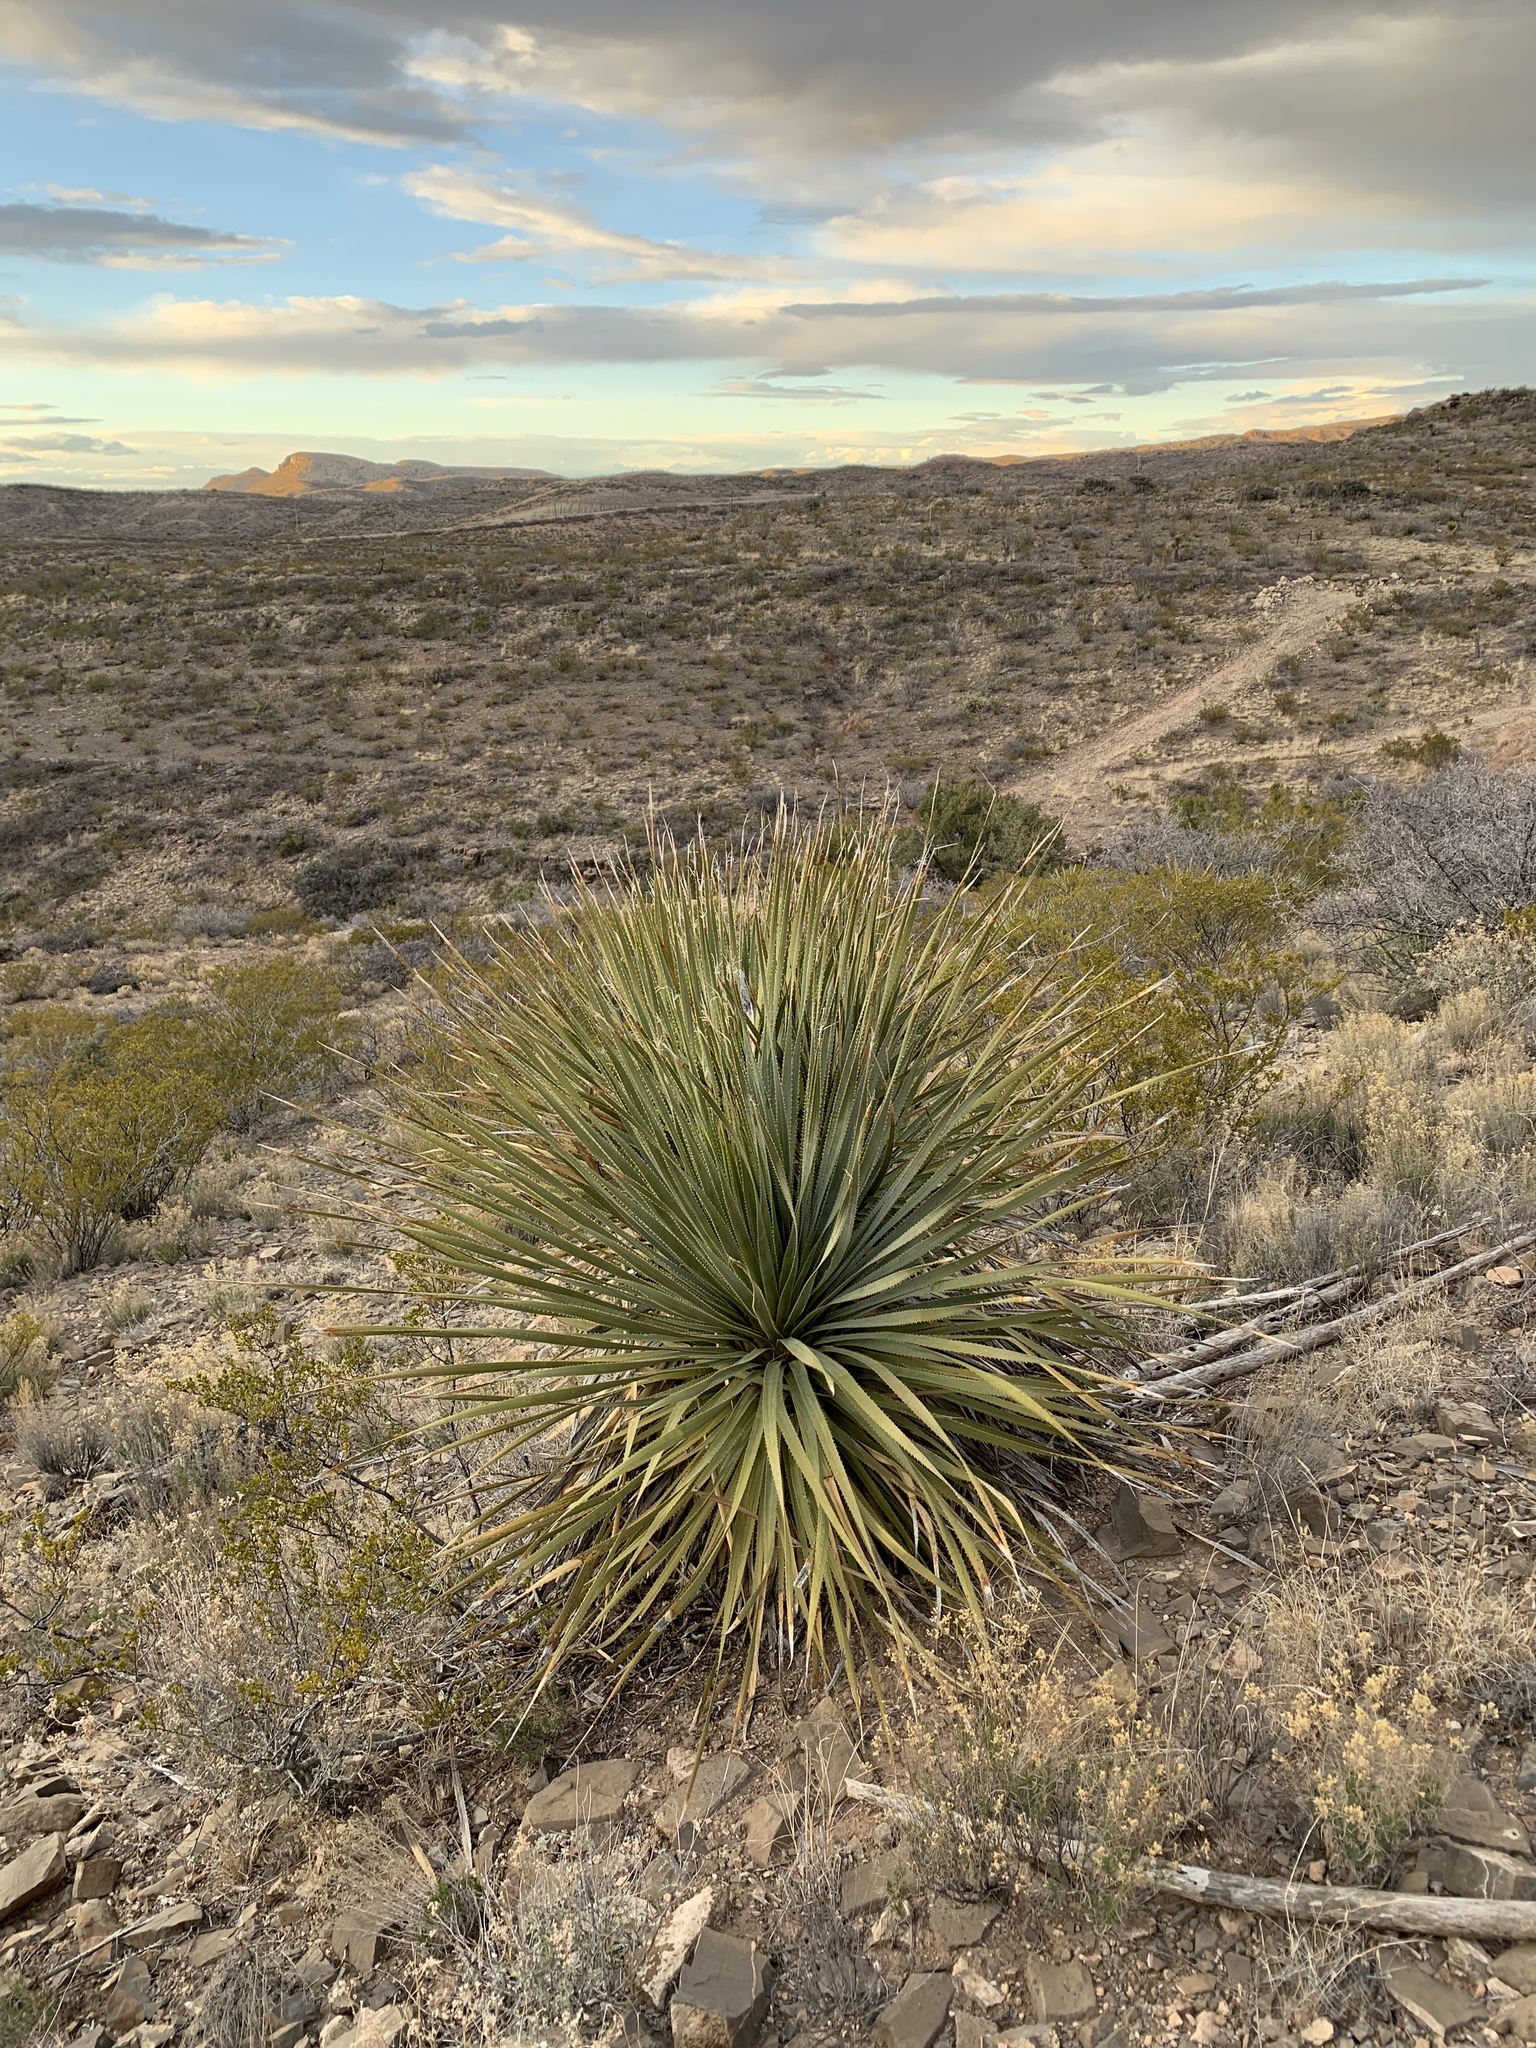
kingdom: Plantae
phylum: Tracheophyta
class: Liliopsida
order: Asparagales
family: Asparagaceae
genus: Dasylirion
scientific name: Dasylirion wheeleri
